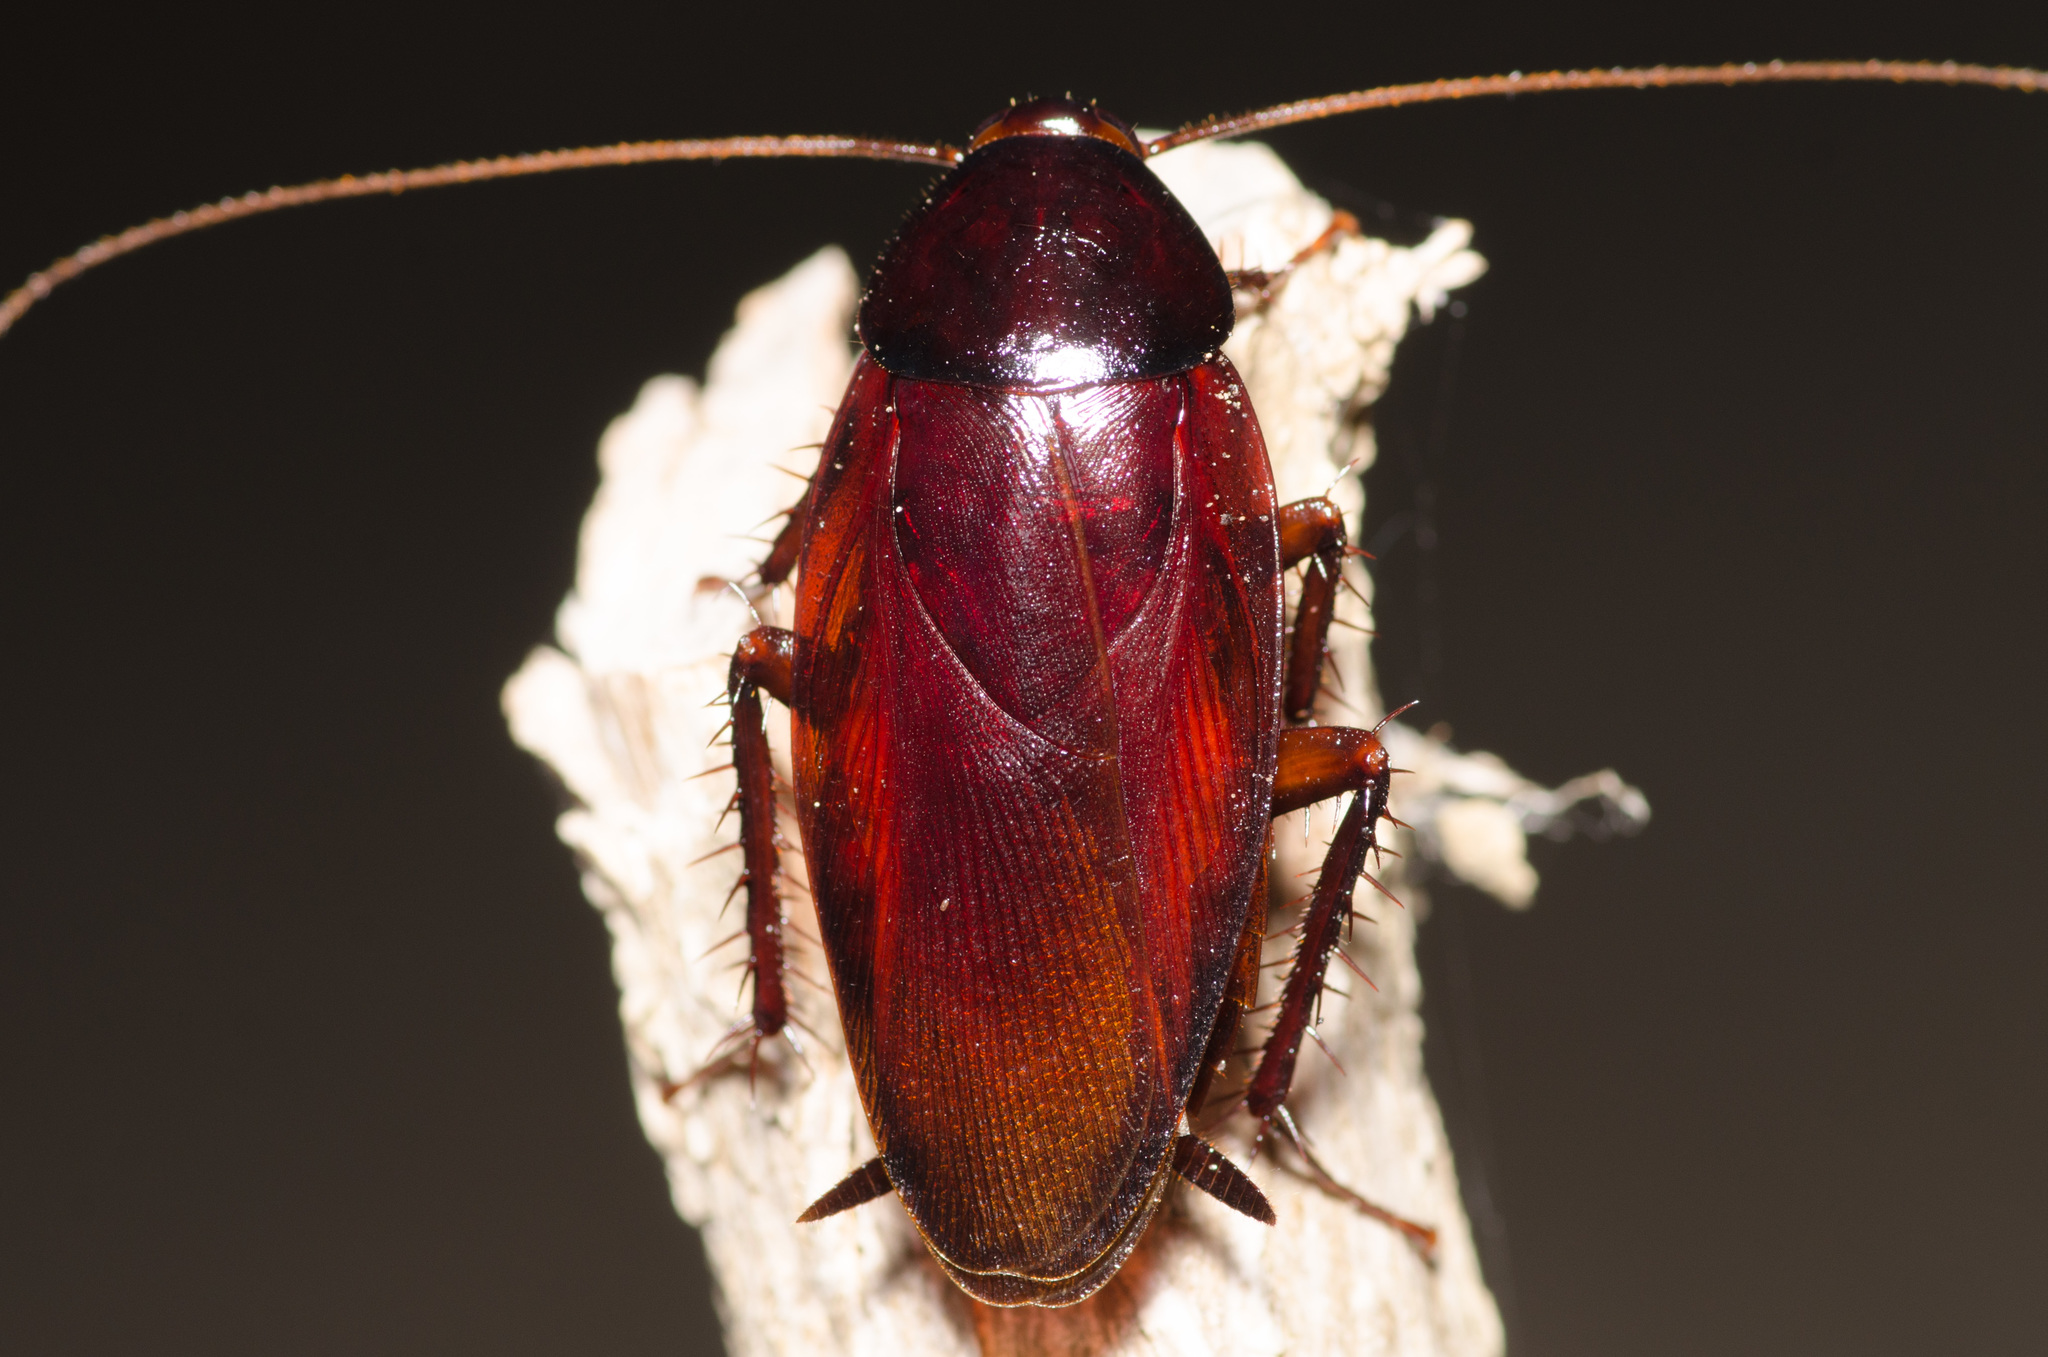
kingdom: Animalia
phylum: Arthropoda
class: Insecta
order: Blattodea
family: Blattidae
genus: Periplaneta
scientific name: Periplaneta fuliginosa
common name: Smokeybrown cockroad
